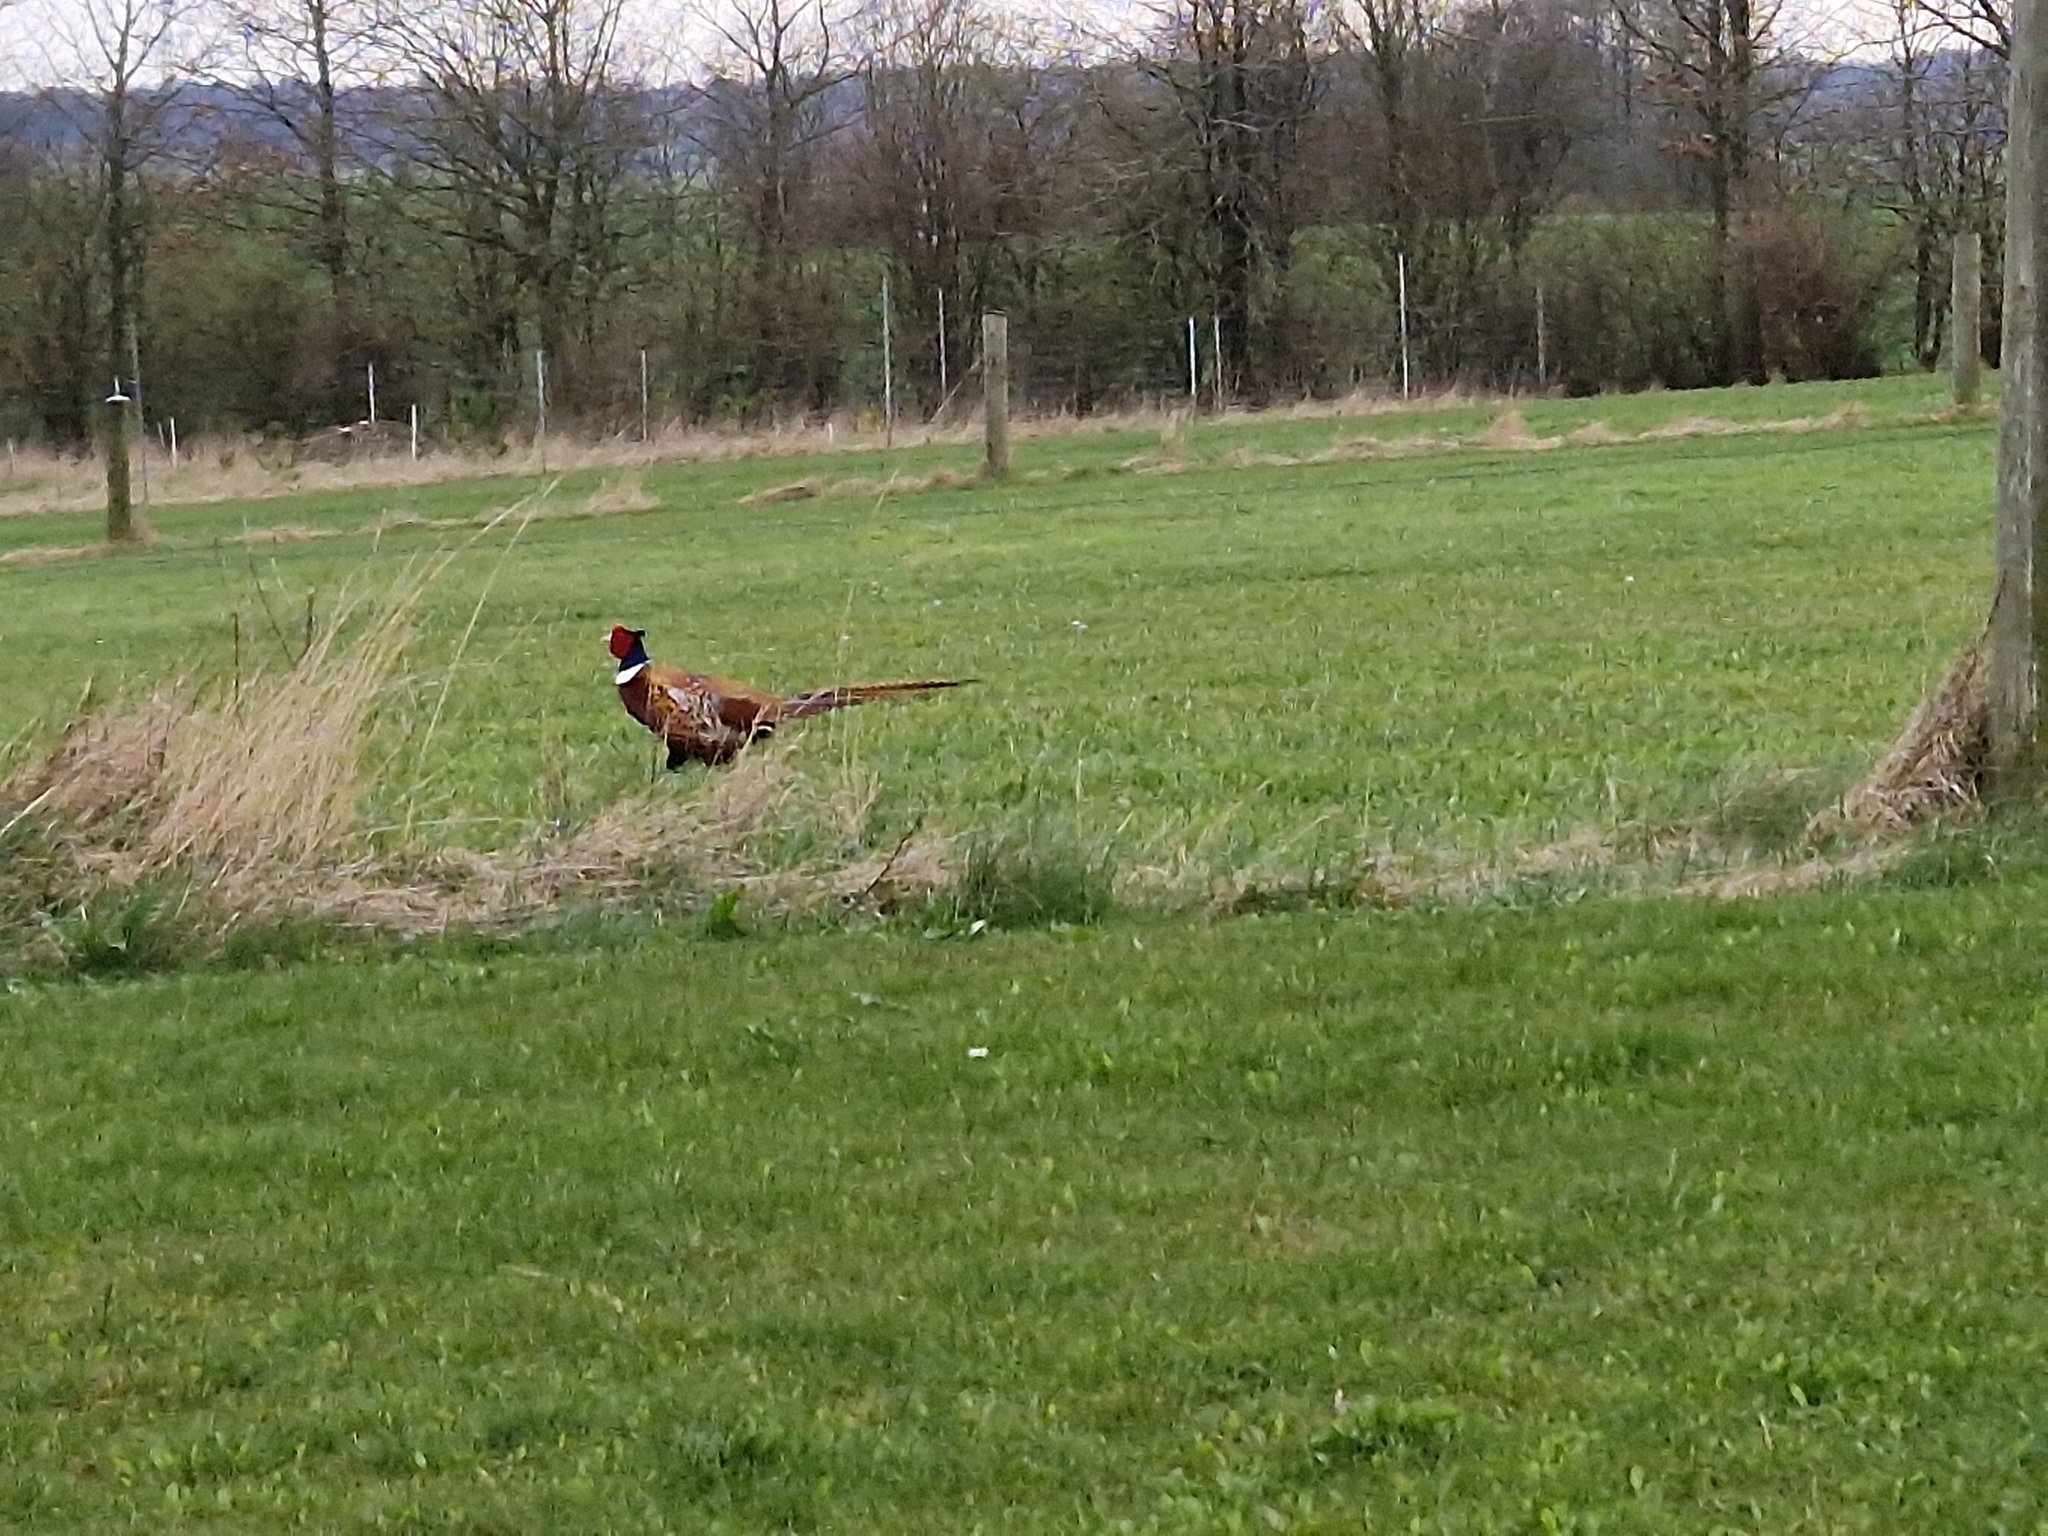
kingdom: Animalia
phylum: Chordata
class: Aves
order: Galliformes
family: Phasianidae
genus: Phasianus
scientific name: Phasianus colchicus
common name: Common pheasant
